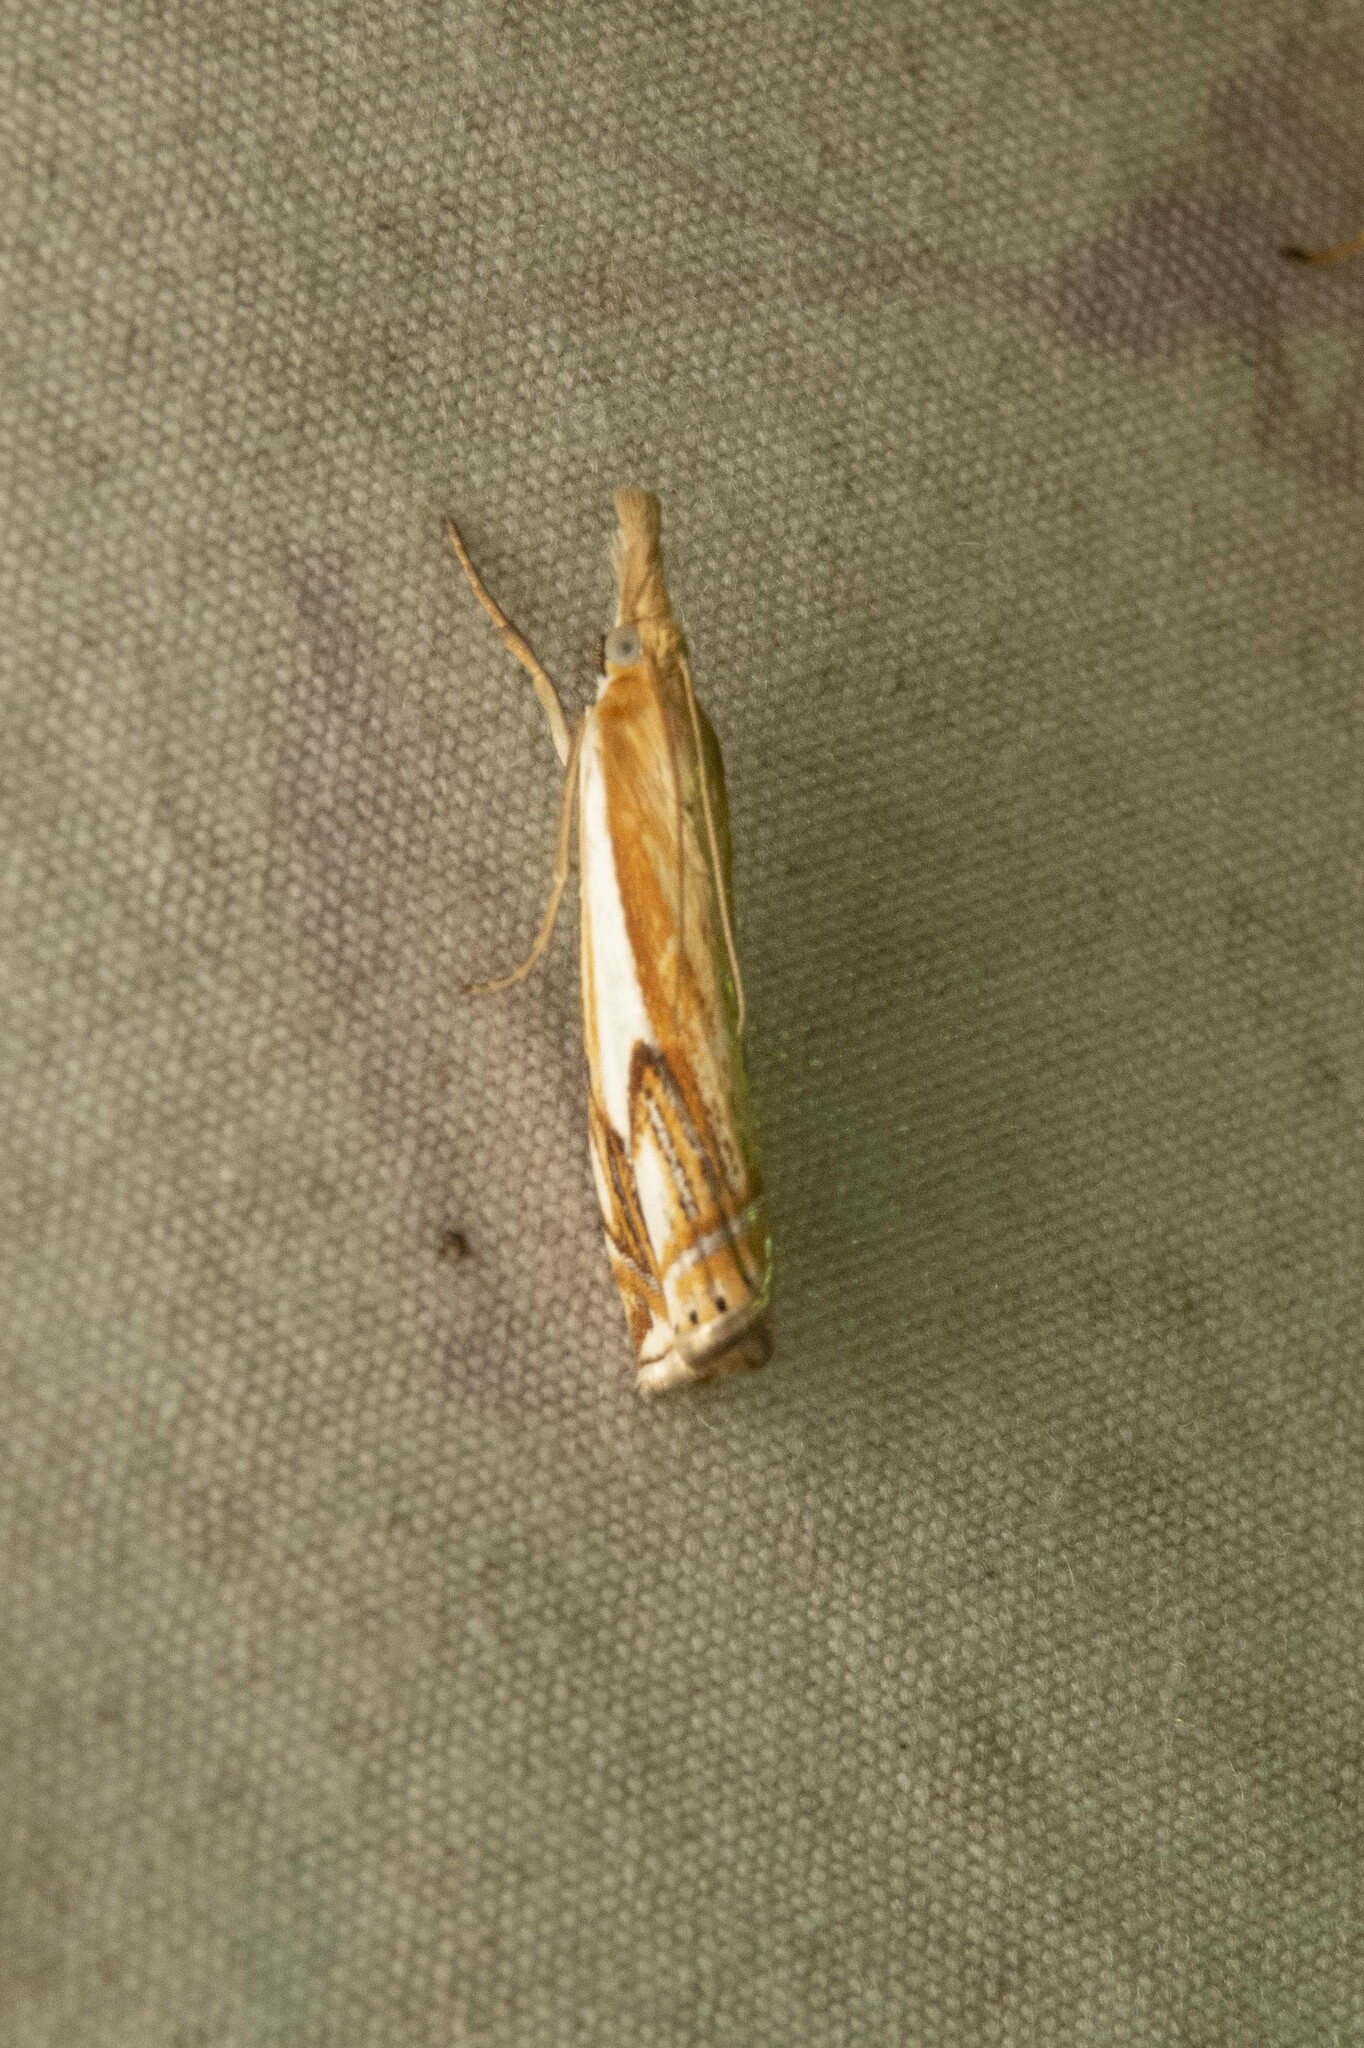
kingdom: Animalia
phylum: Arthropoda
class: Insecta
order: Lepidoptera
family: Crambidae
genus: Crambus
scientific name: Crambus agitatellus
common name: Double-banded grass-veneer
